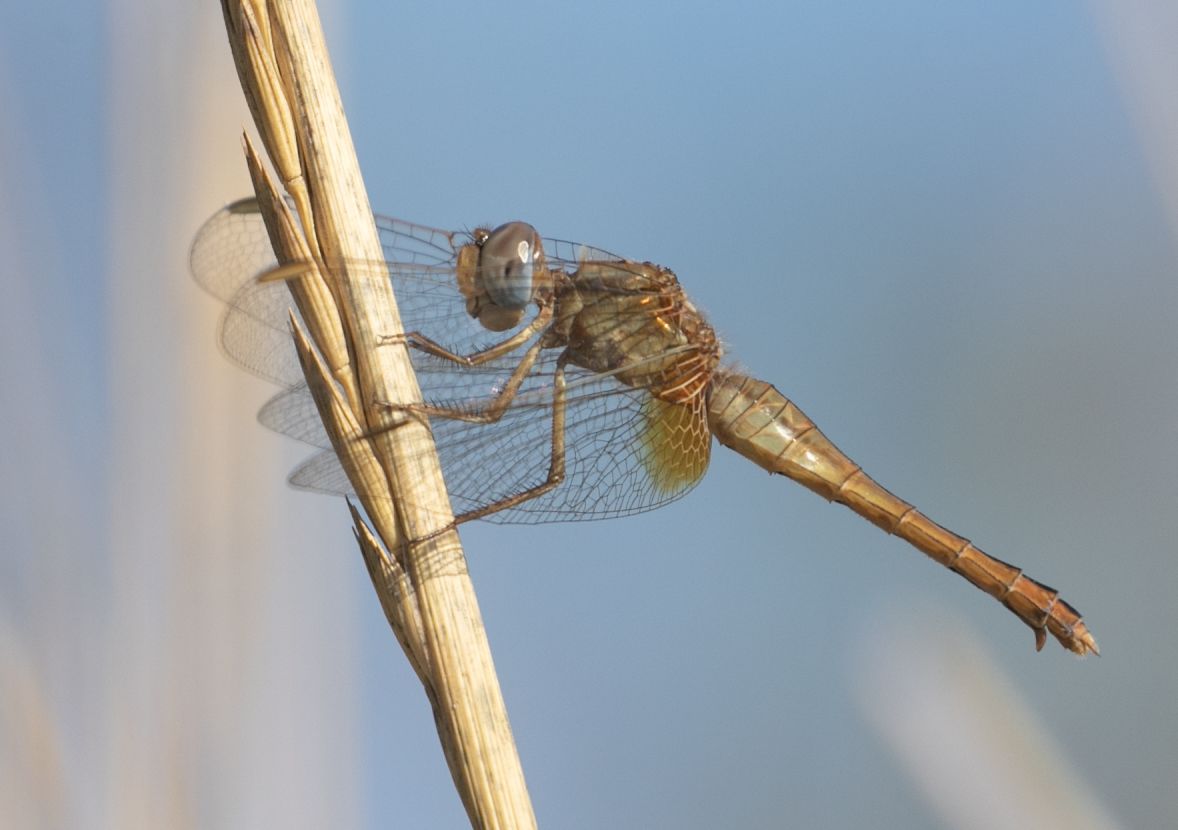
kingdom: Animalia
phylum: Arthropoda
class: Insecta
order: Odonata
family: Libellulidae
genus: Crocothemis
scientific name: Crocothemis erythraea
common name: Scarlet dragonfly
